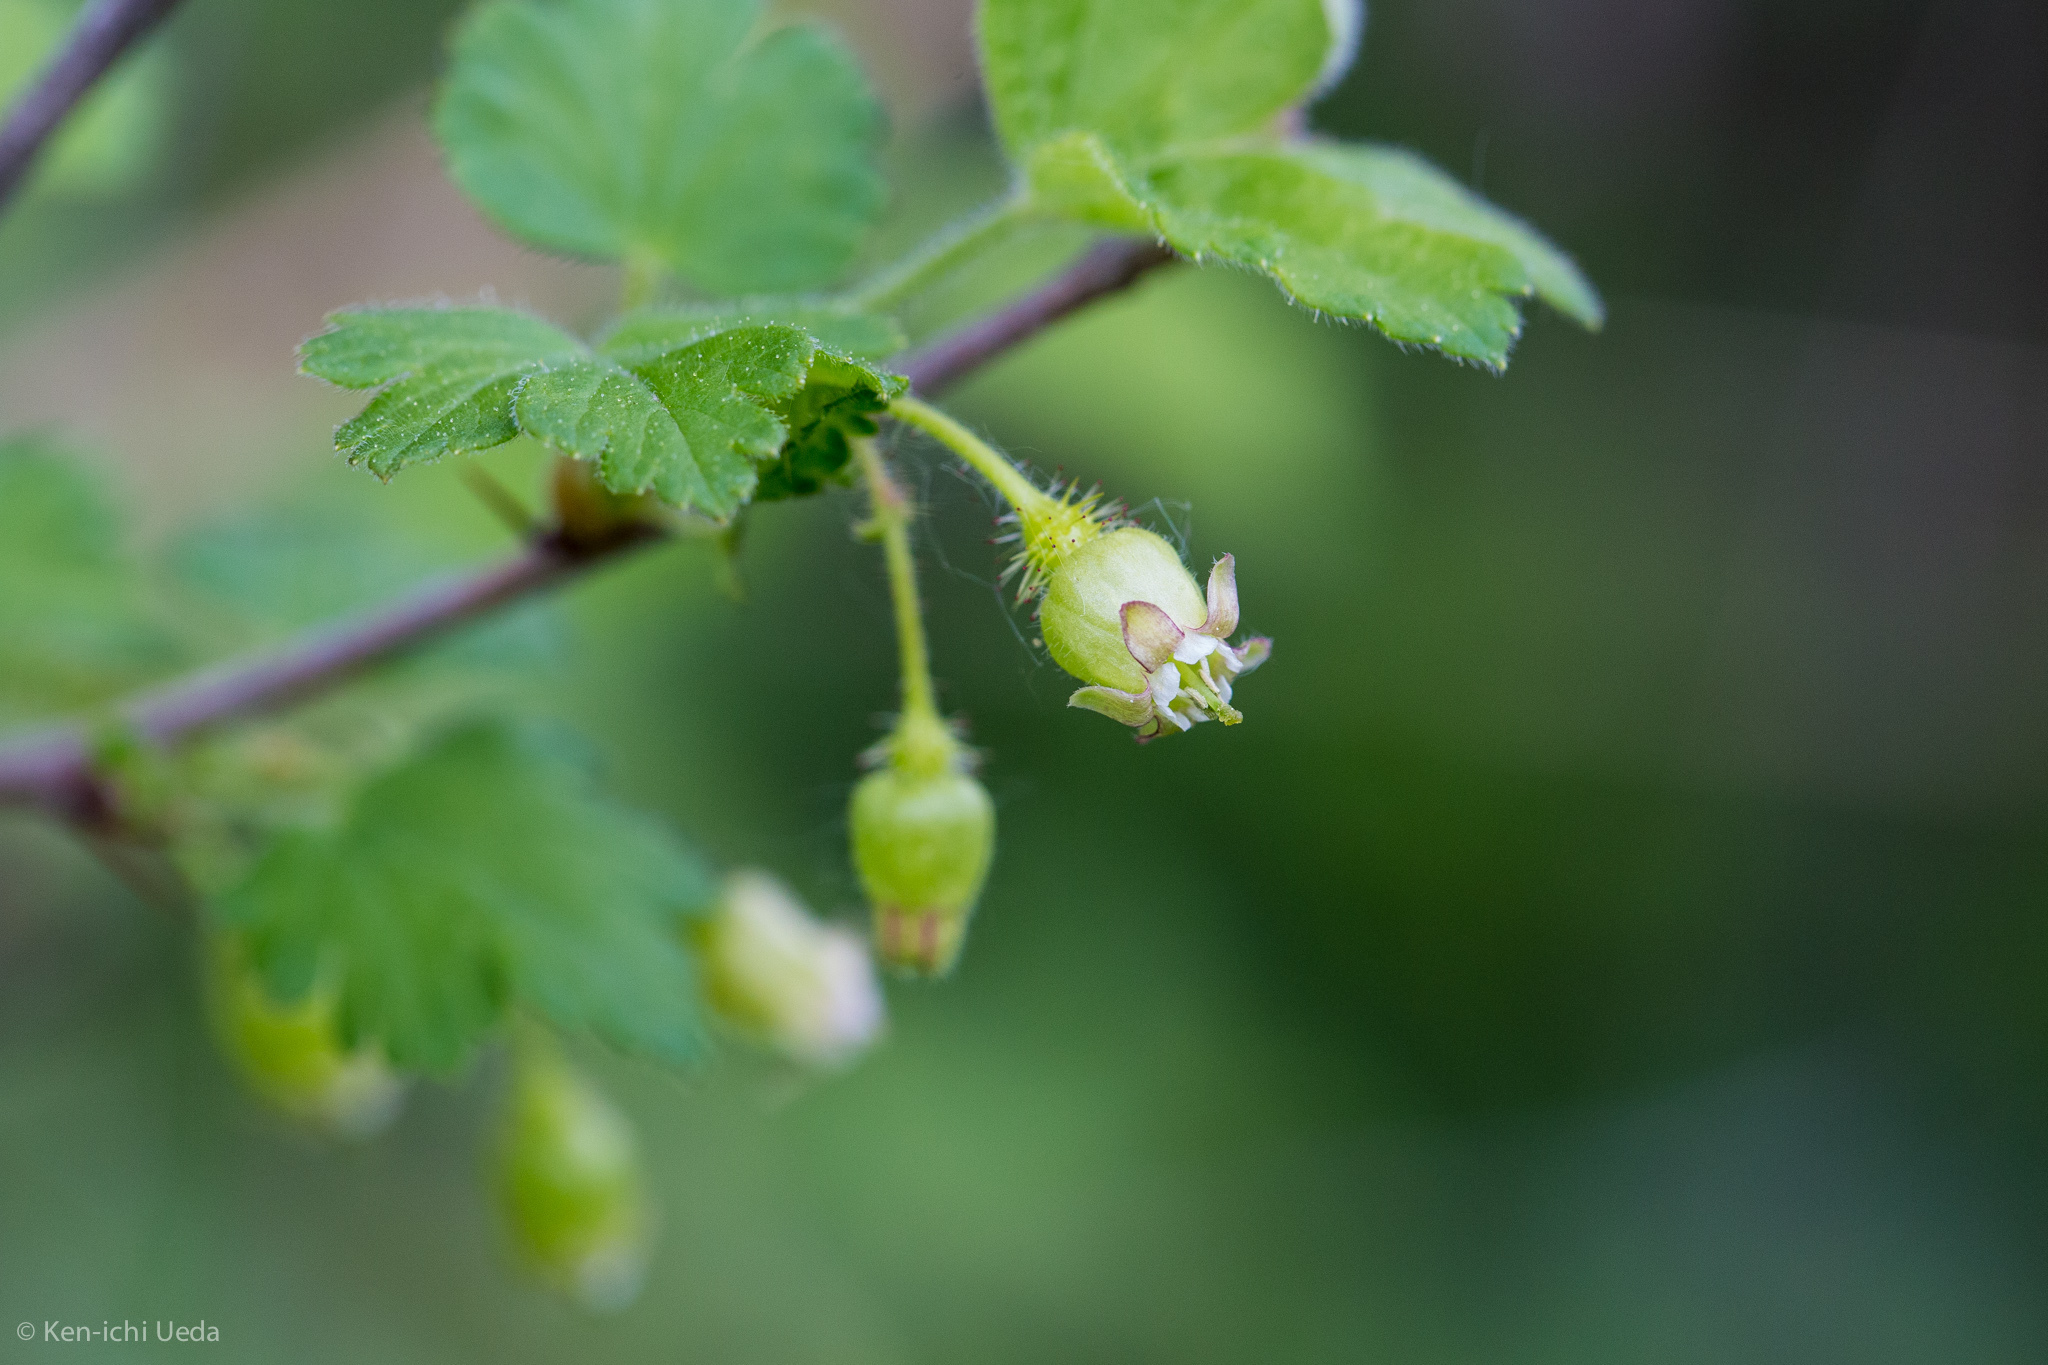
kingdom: Plantae
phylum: Tracheophyta
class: Magnoliopsida
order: Saxifragales
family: Grossulariaceae
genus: Ribes
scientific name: Ribes cynosbati
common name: American gooseberry
